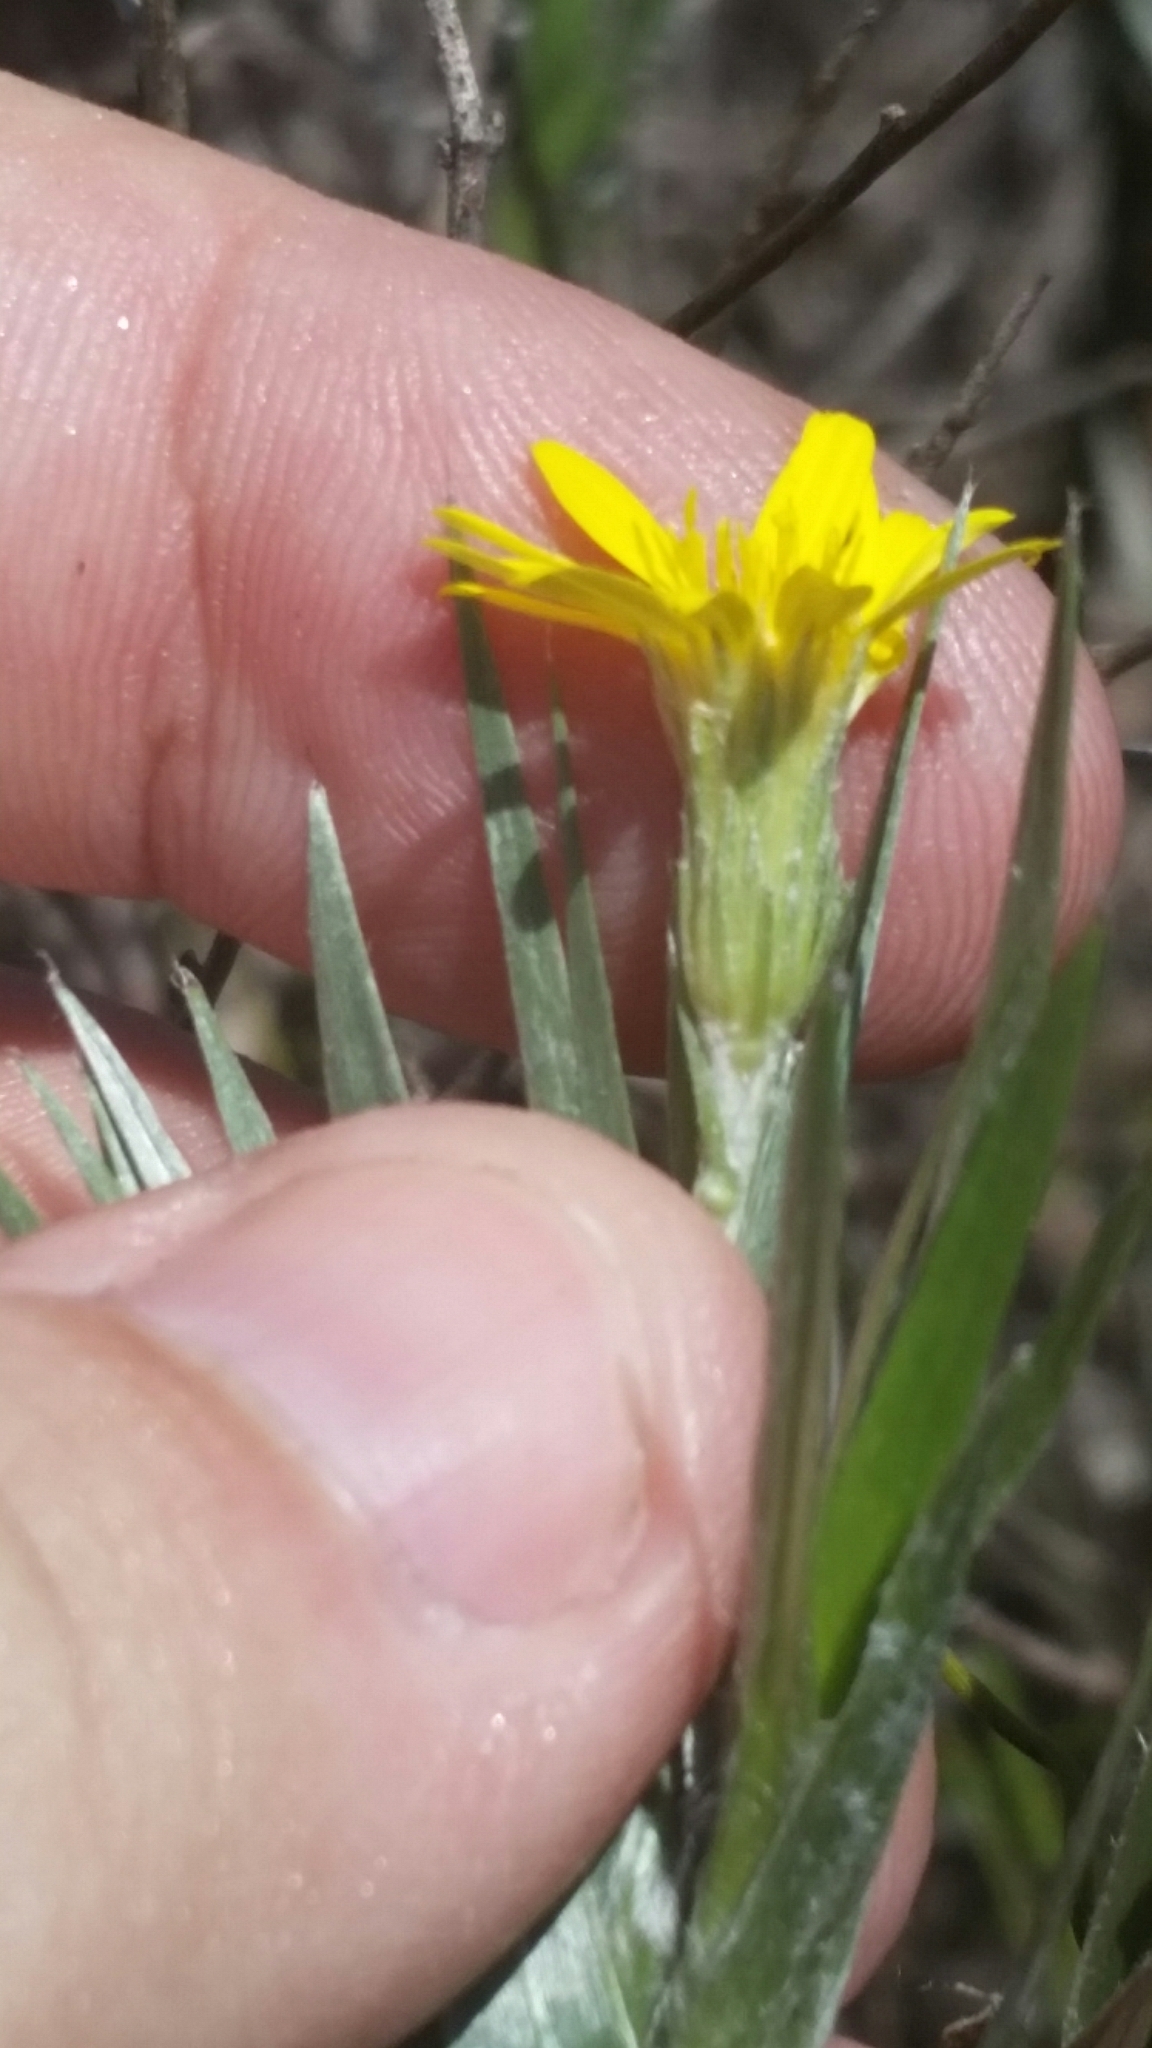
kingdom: Plantae
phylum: Tracheophyta
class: Magnoliopsida
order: Asterales
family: Asteraceae
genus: Pityopsis
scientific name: Pityopsis latifolia
